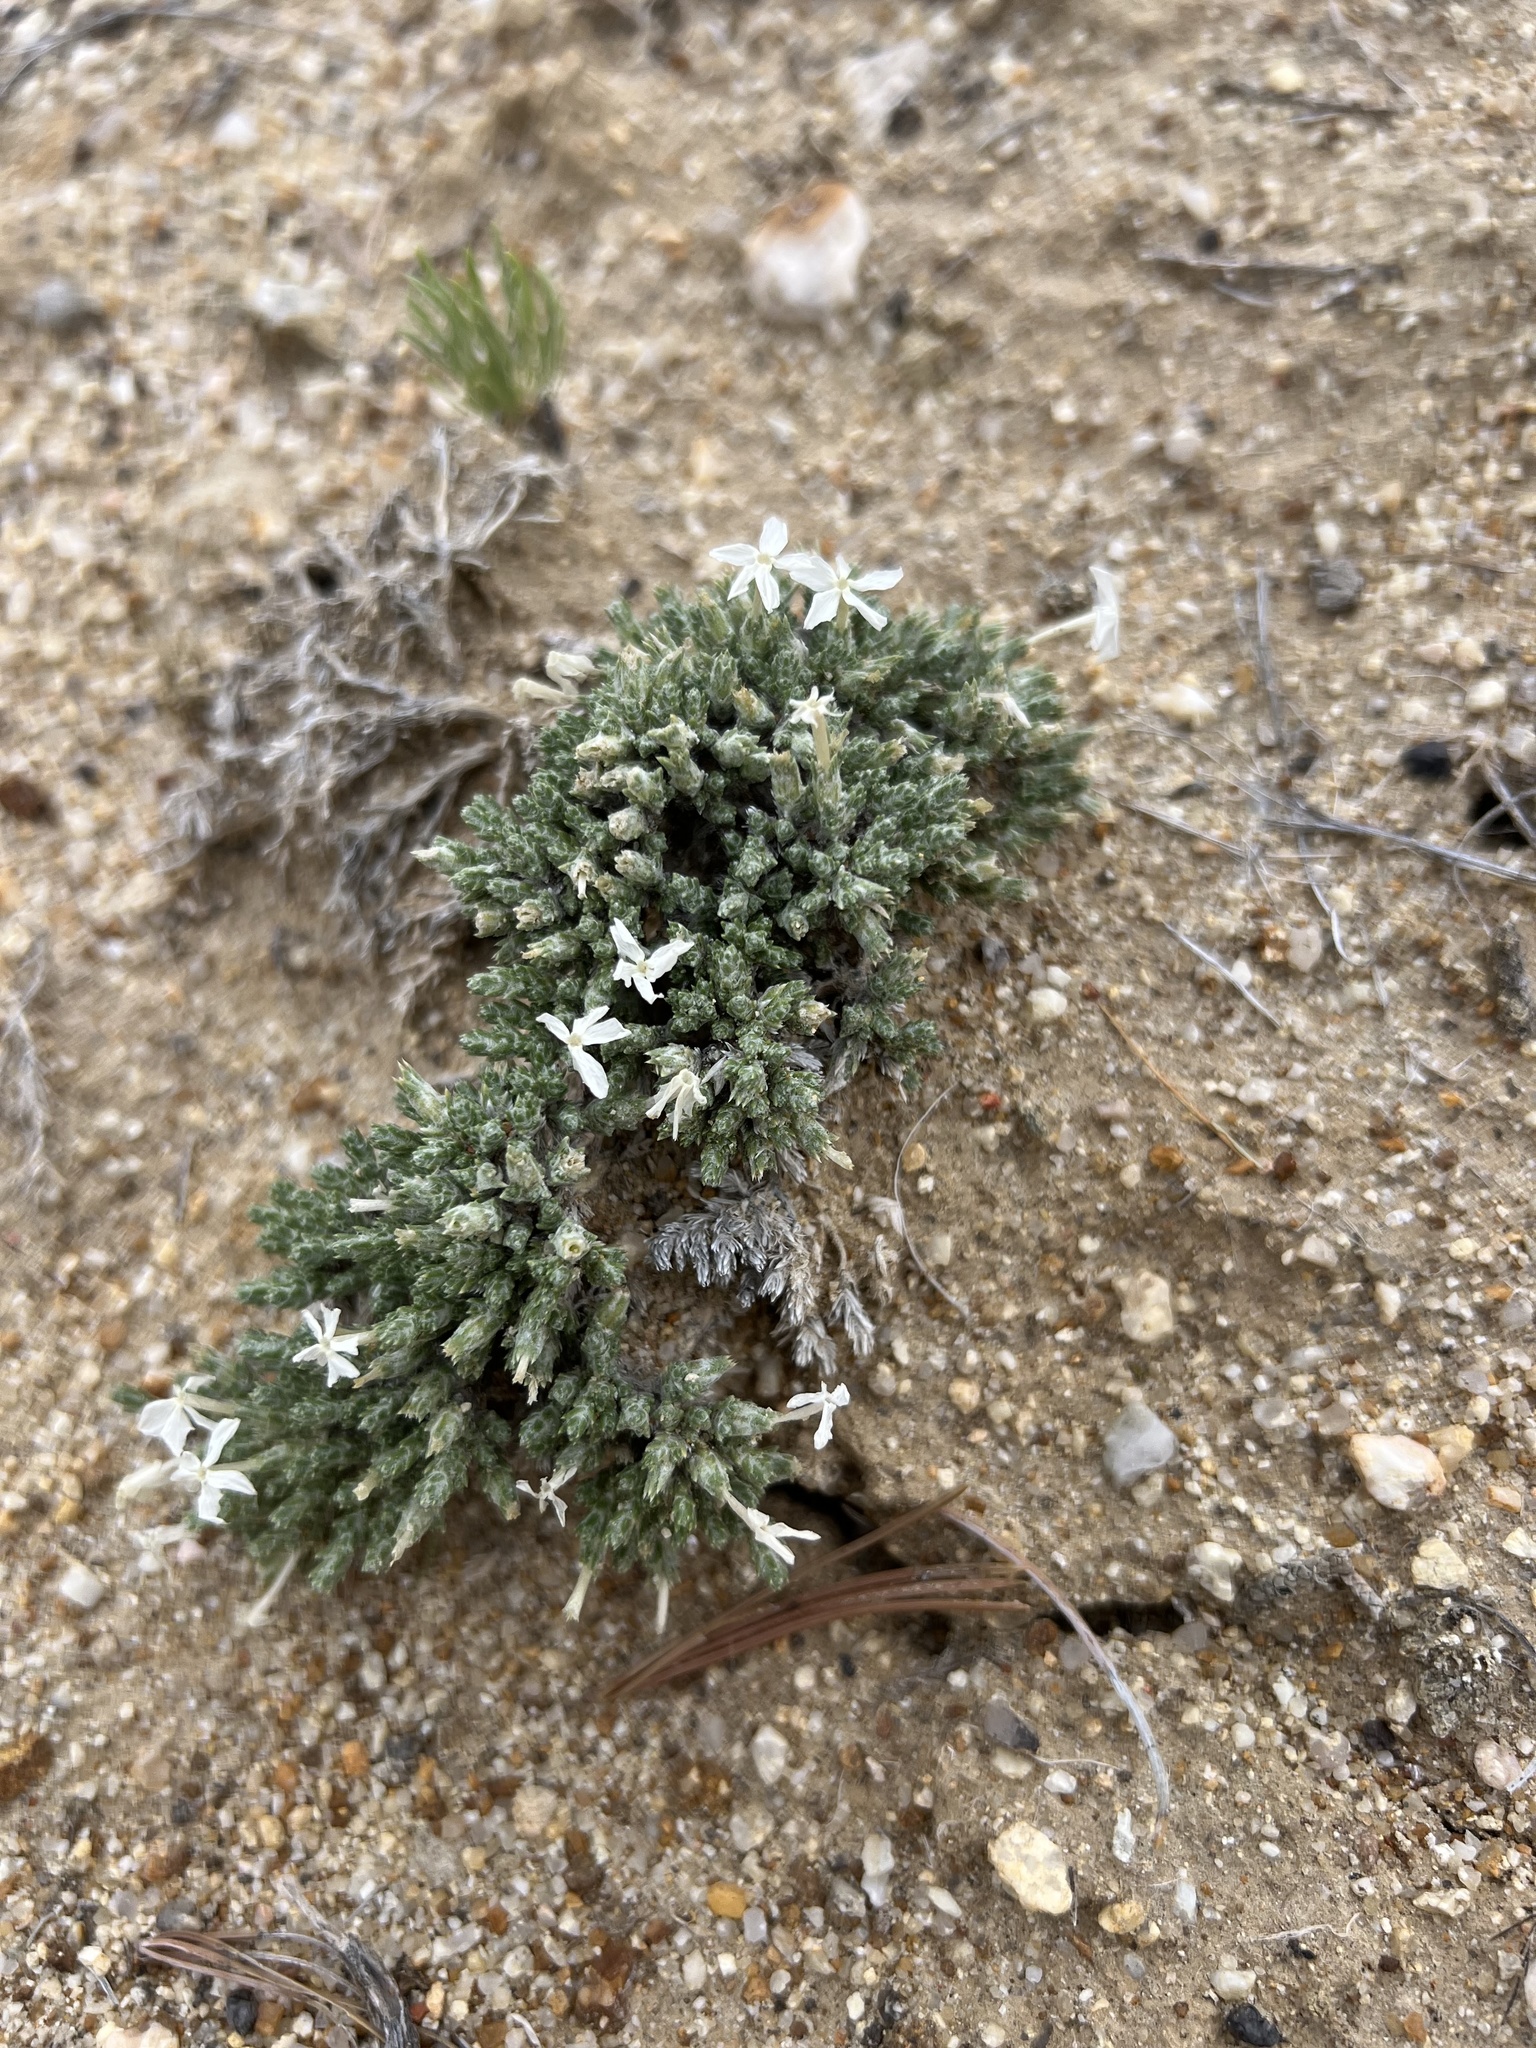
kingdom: Plantae
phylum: Tracheophyta
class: Magnoliopsida
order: Ericales
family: Polemoniaceae
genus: Phlox
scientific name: Phlox hoodii
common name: Moss phlox
